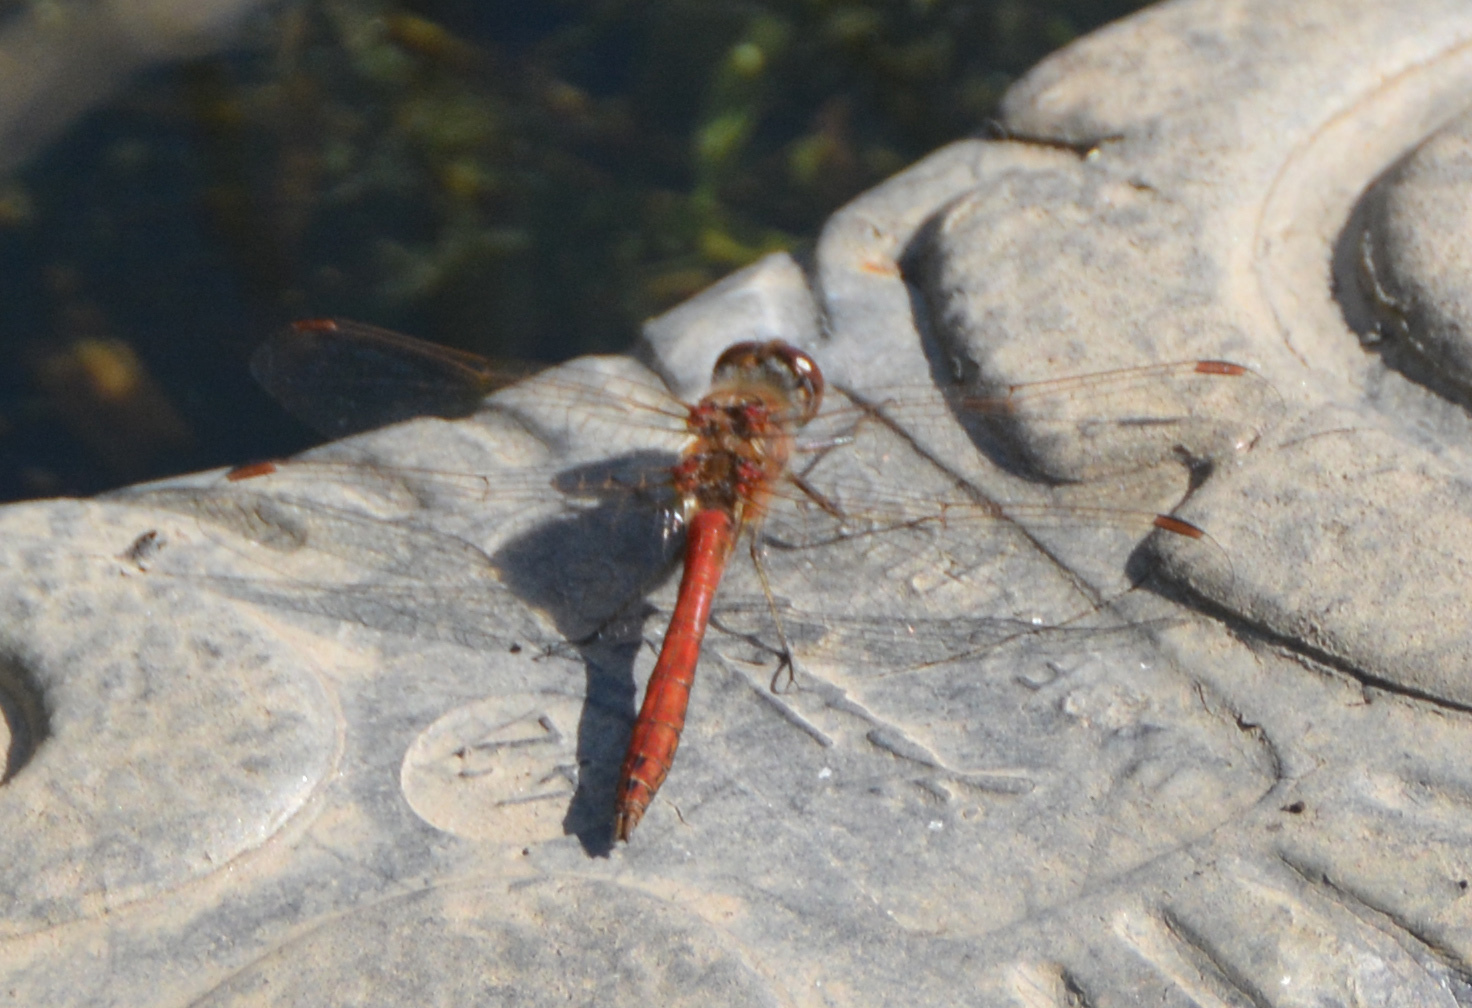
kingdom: Animalia
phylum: Arthropoda
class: Insecta
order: Odonata
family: Libellulidae
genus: Sympetrum
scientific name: Sympetrum vulgatum
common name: Vagrant darter
